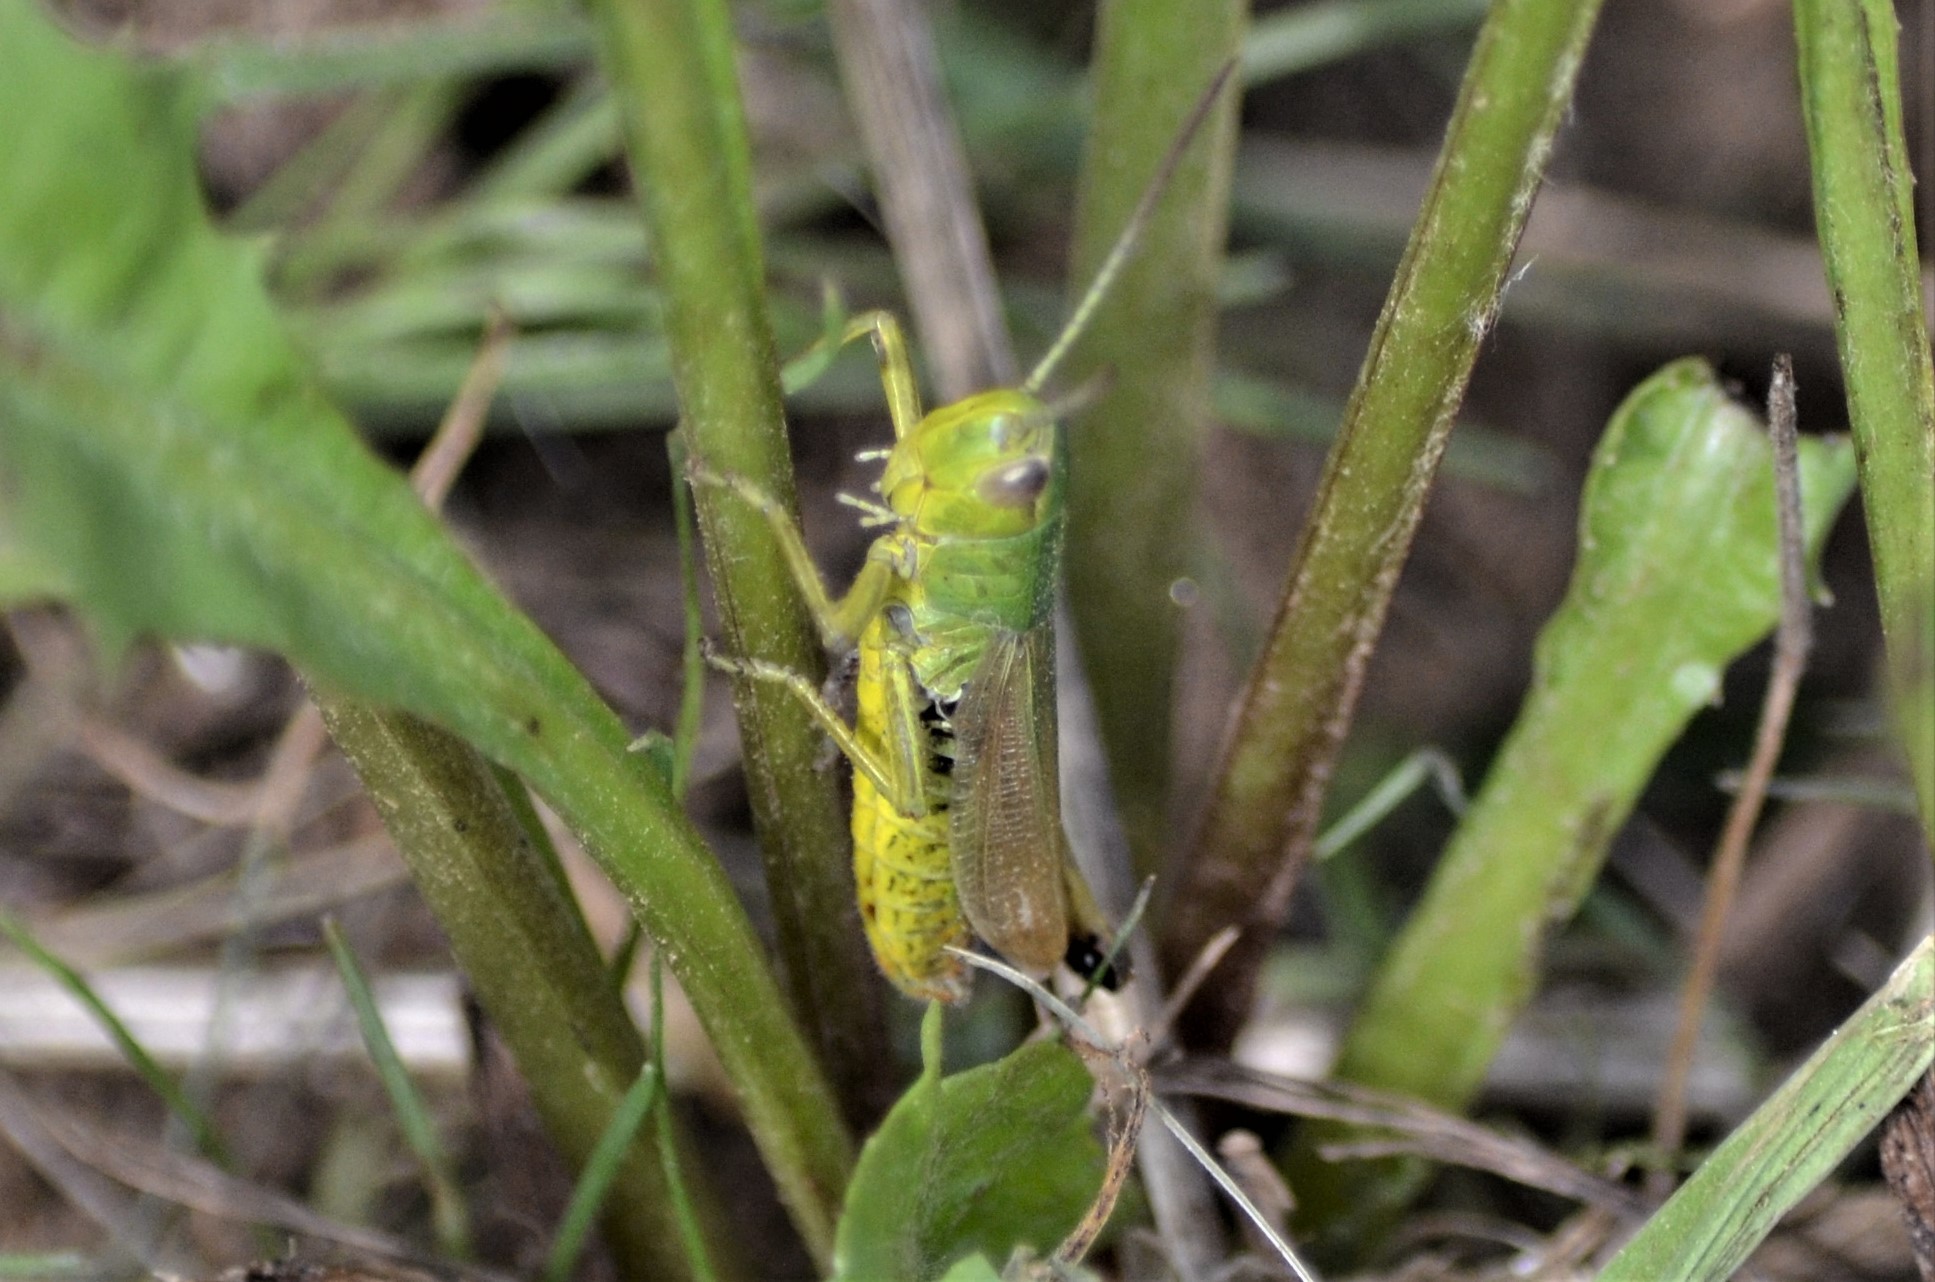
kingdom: Animalia
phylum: Arthropoda
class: Insecta
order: Orthoptera
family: Acrididae
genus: Pseudochorthippus
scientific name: Pseudochorthippus parallelus
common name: Meadow grasshopper
